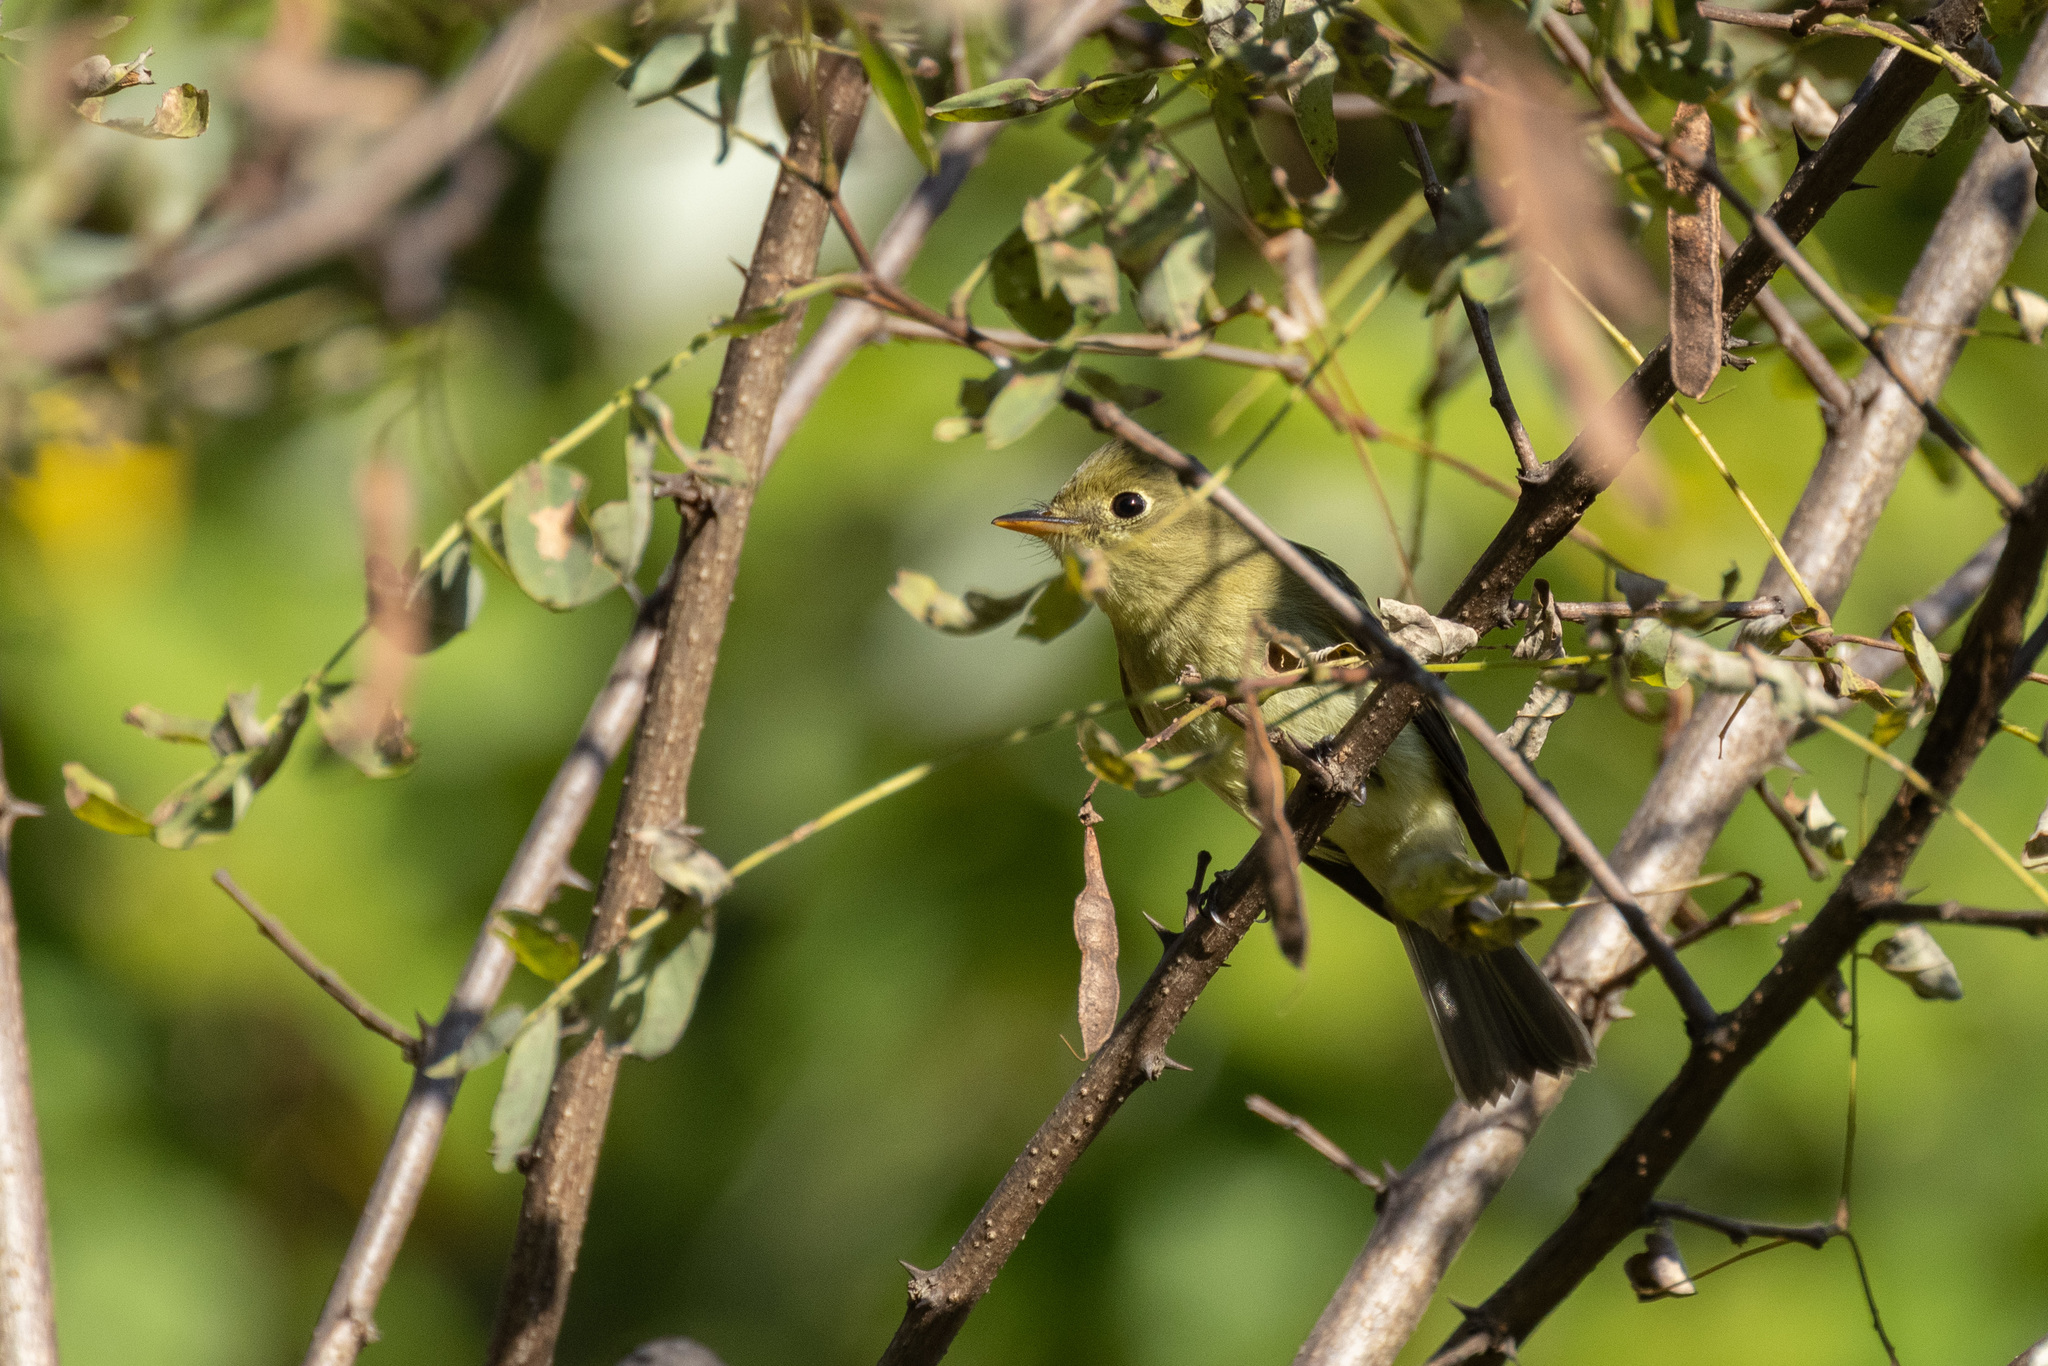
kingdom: Animalia
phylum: Chordata
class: Aves
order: Passeriformes
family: Tyrannidae
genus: Empidonax
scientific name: Empidonax flaviventris
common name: Yellow-bellied flycatcher
